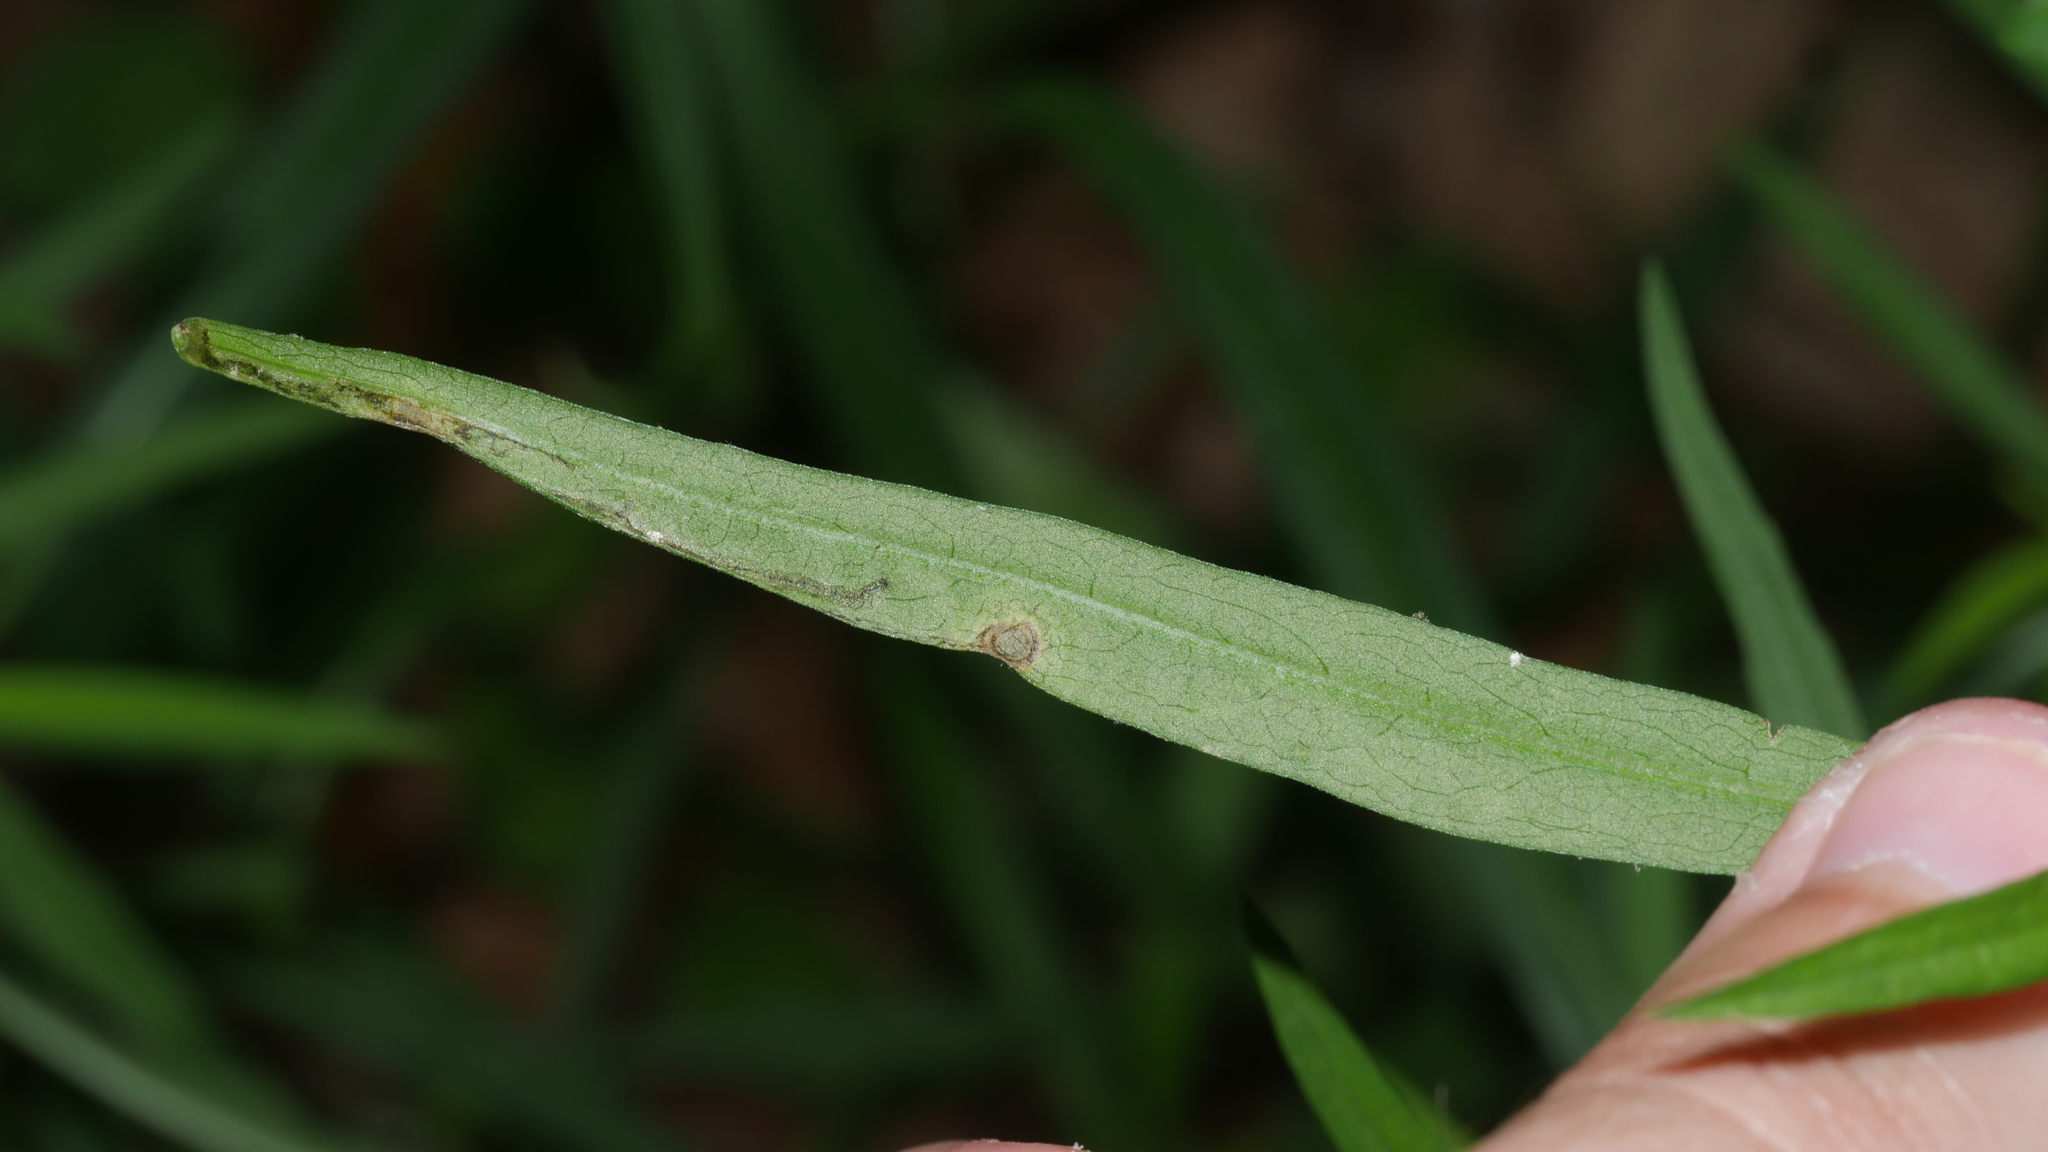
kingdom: Animalia
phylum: Arthropoda
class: Insecta
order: Diptera
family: Agromyzidae
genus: Liriomyza
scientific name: Liriomyza eupatorii
